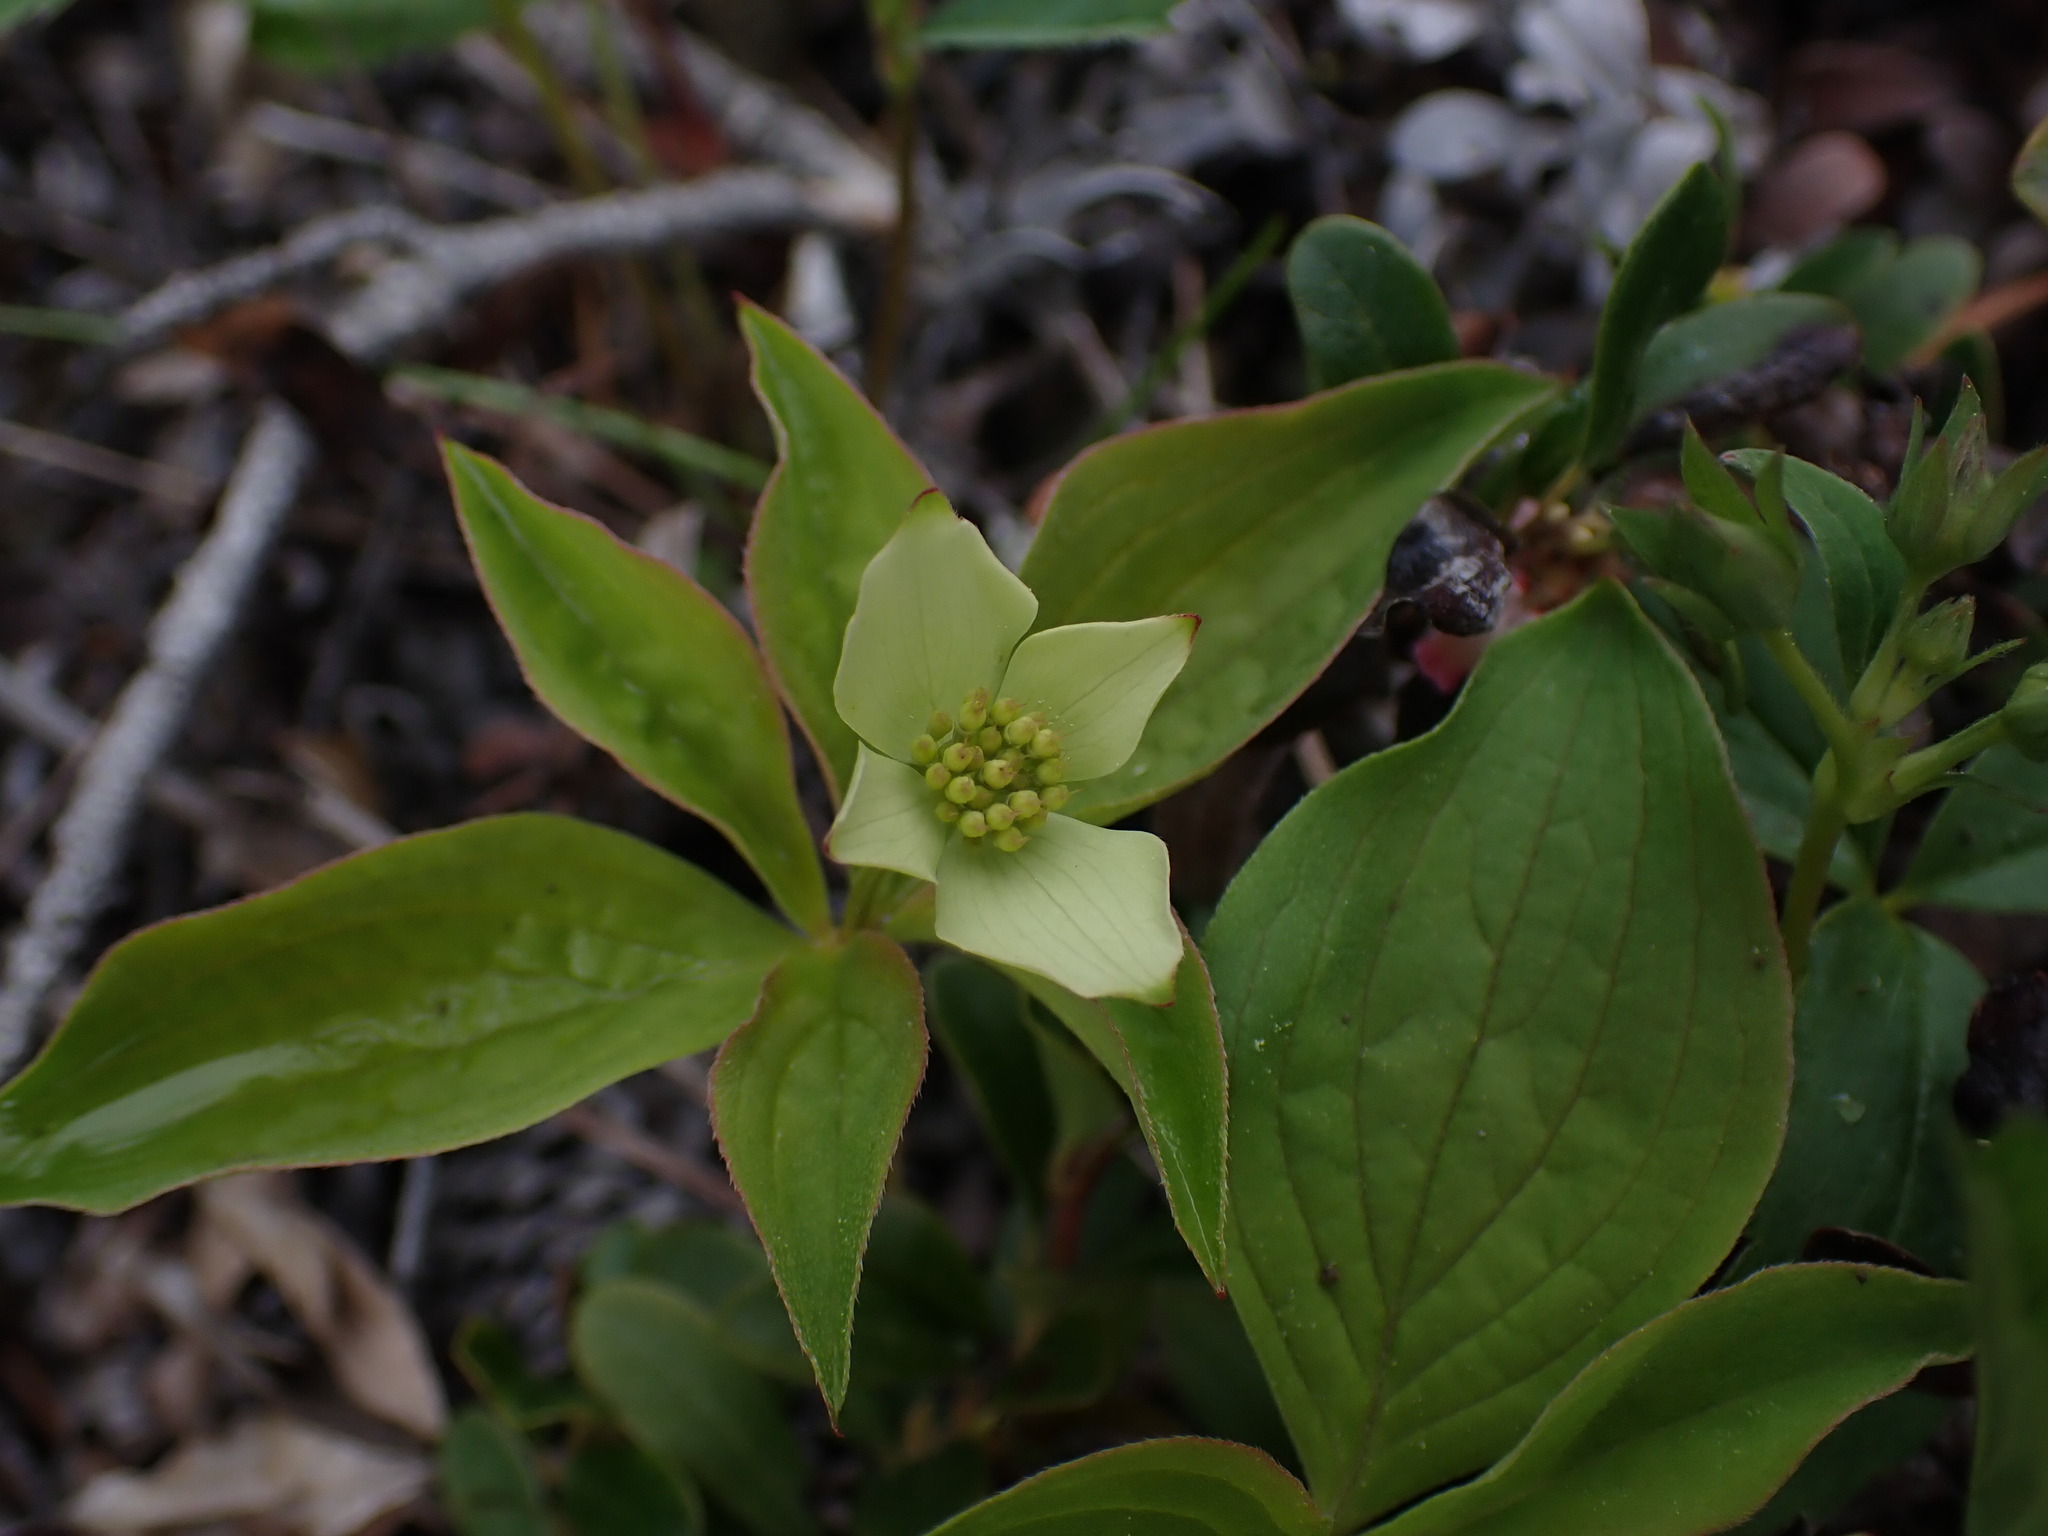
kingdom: Plantae
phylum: Tracheophyta
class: Magnoliopsida
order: Cornales
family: Cornaceae
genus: Cornus
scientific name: Cornus canadensis
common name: Creeping dogwood
